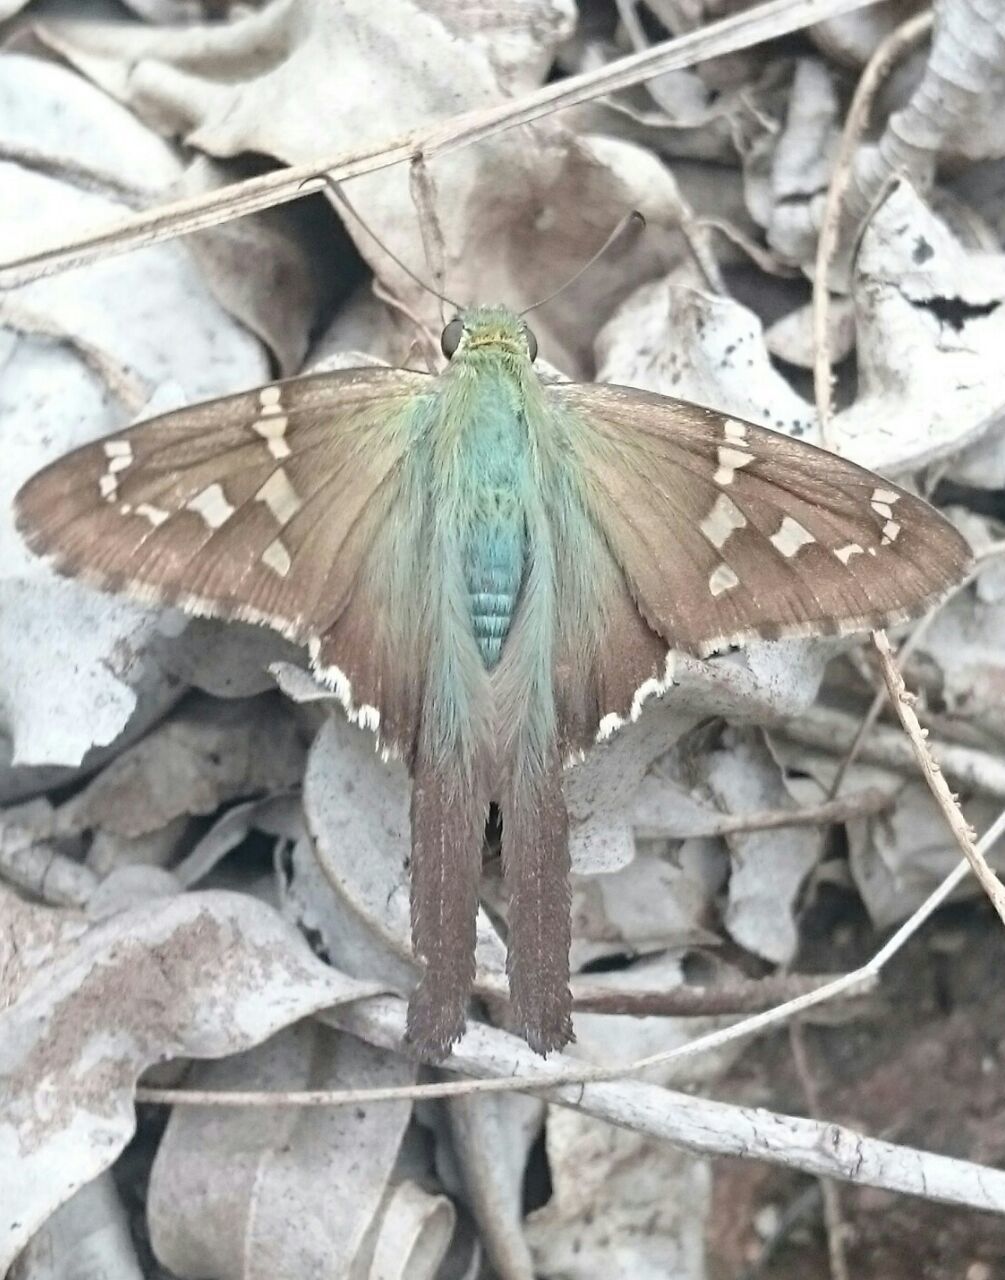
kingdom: Animalia
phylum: Arthropoda
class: Insecta
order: Lepidoptera
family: Hesperiidae
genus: Urbanus
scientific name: Urbanus proteus
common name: Long-tailed skipper
